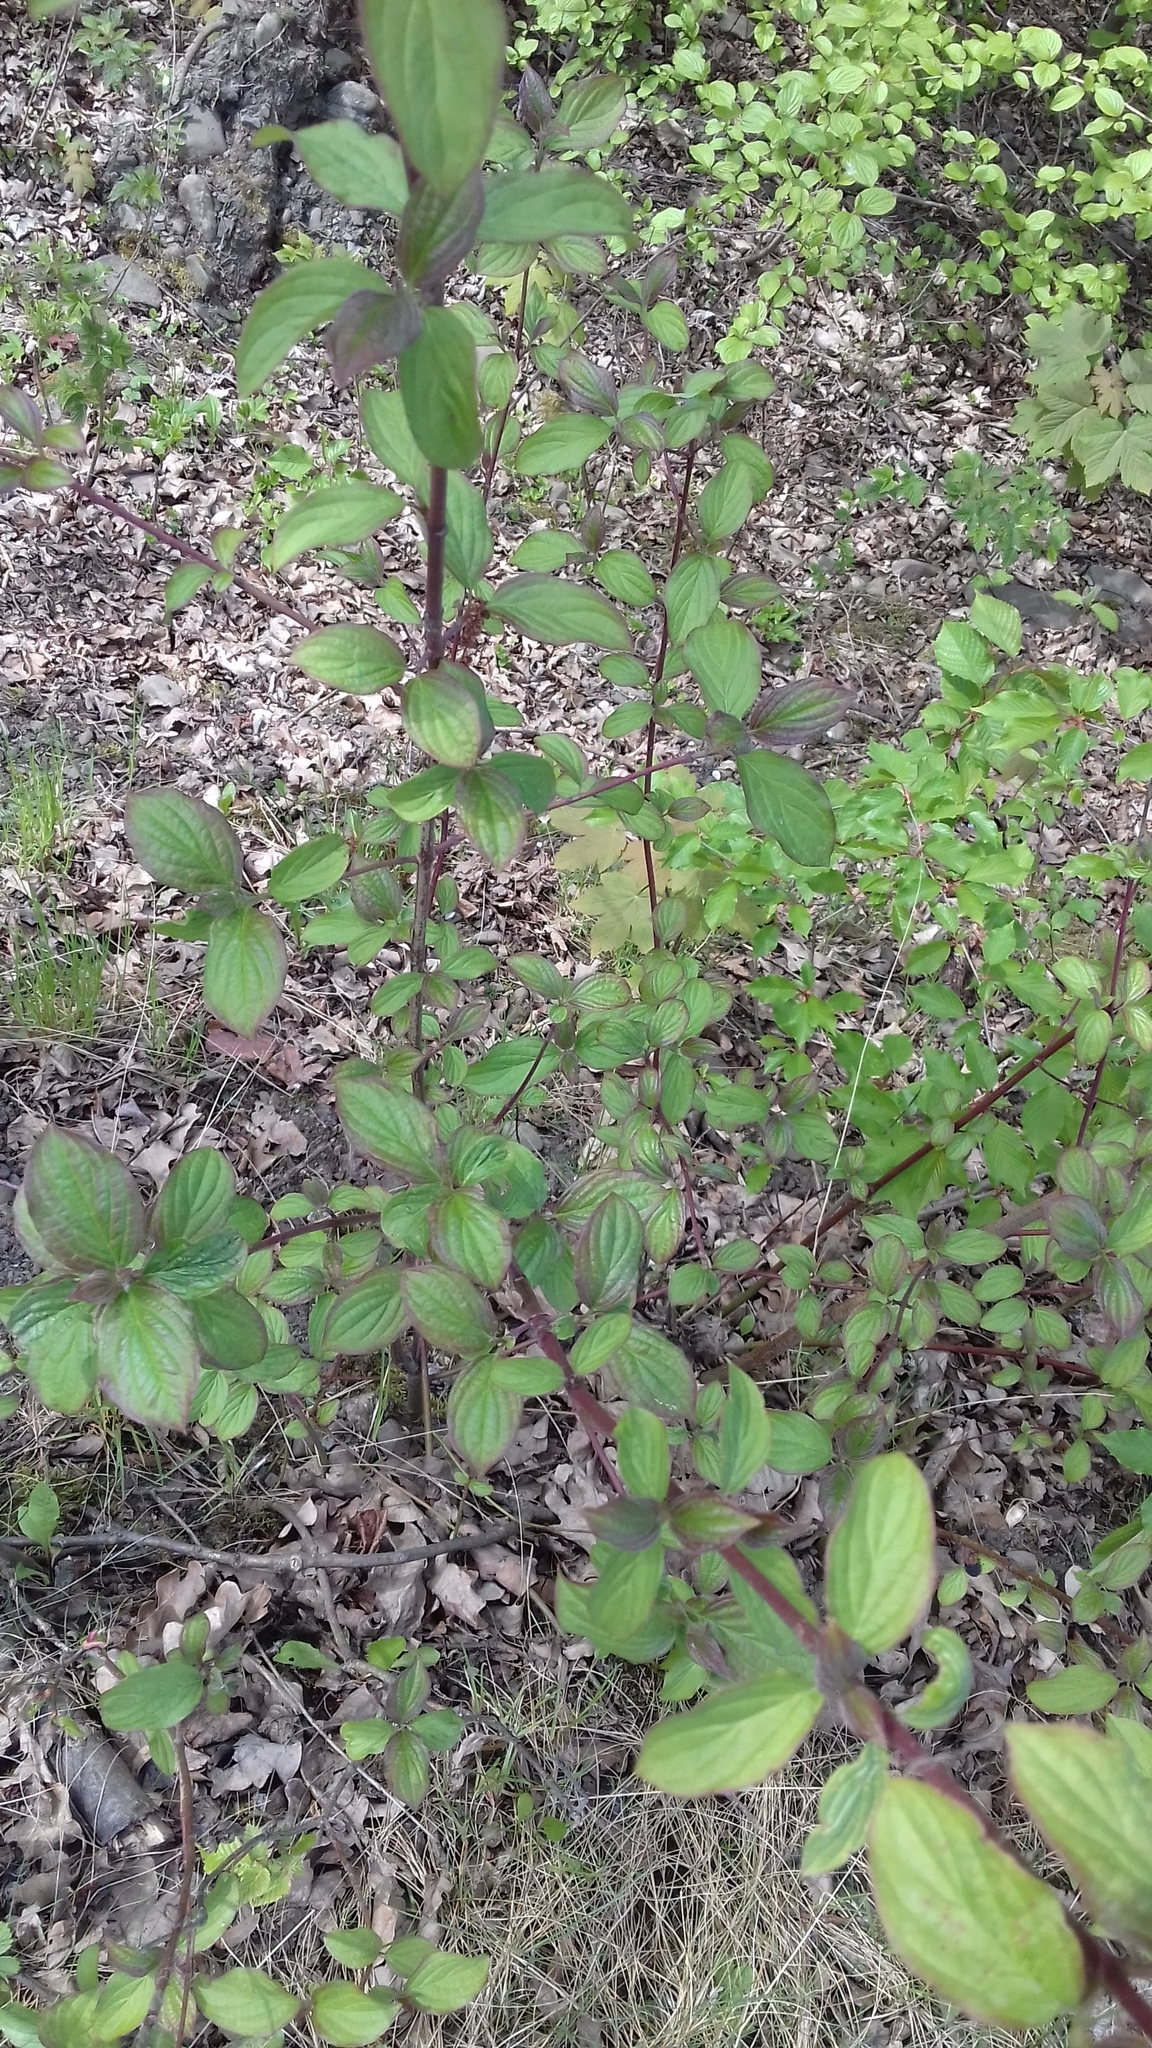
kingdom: Plantae
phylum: Tracheophyta
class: Magnoliopsida
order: Cornales
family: Cornaceae
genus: Cornus
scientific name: Cornus sanguinea
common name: Dogwood
